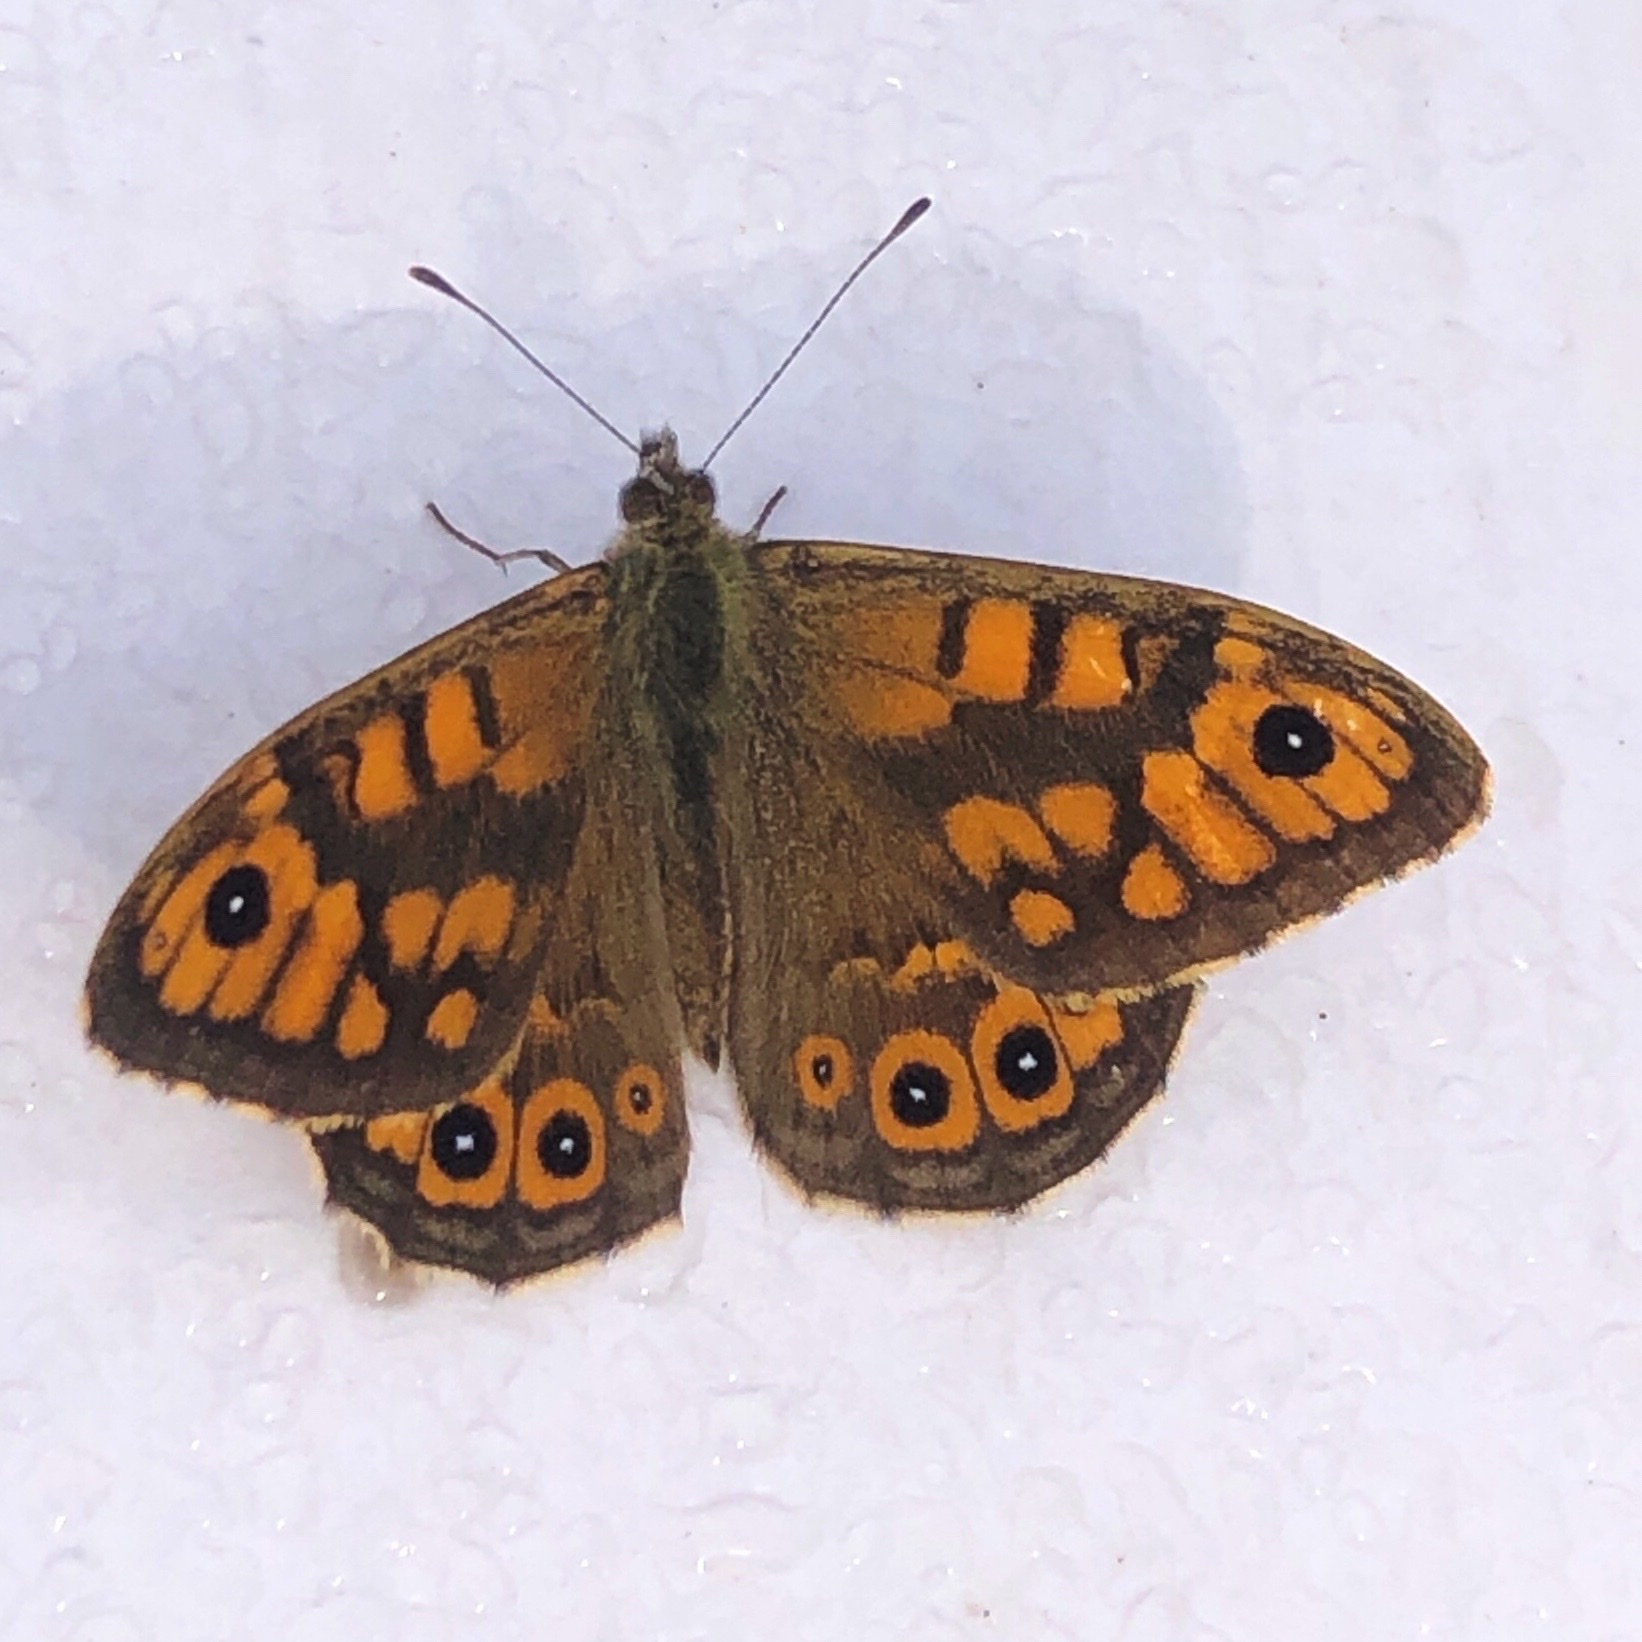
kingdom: Animalia
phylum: Arthropoda
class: Insecta
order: Lepidoptera
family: Nymphalidae
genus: Pararge
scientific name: Pararge Lasiommata megera
